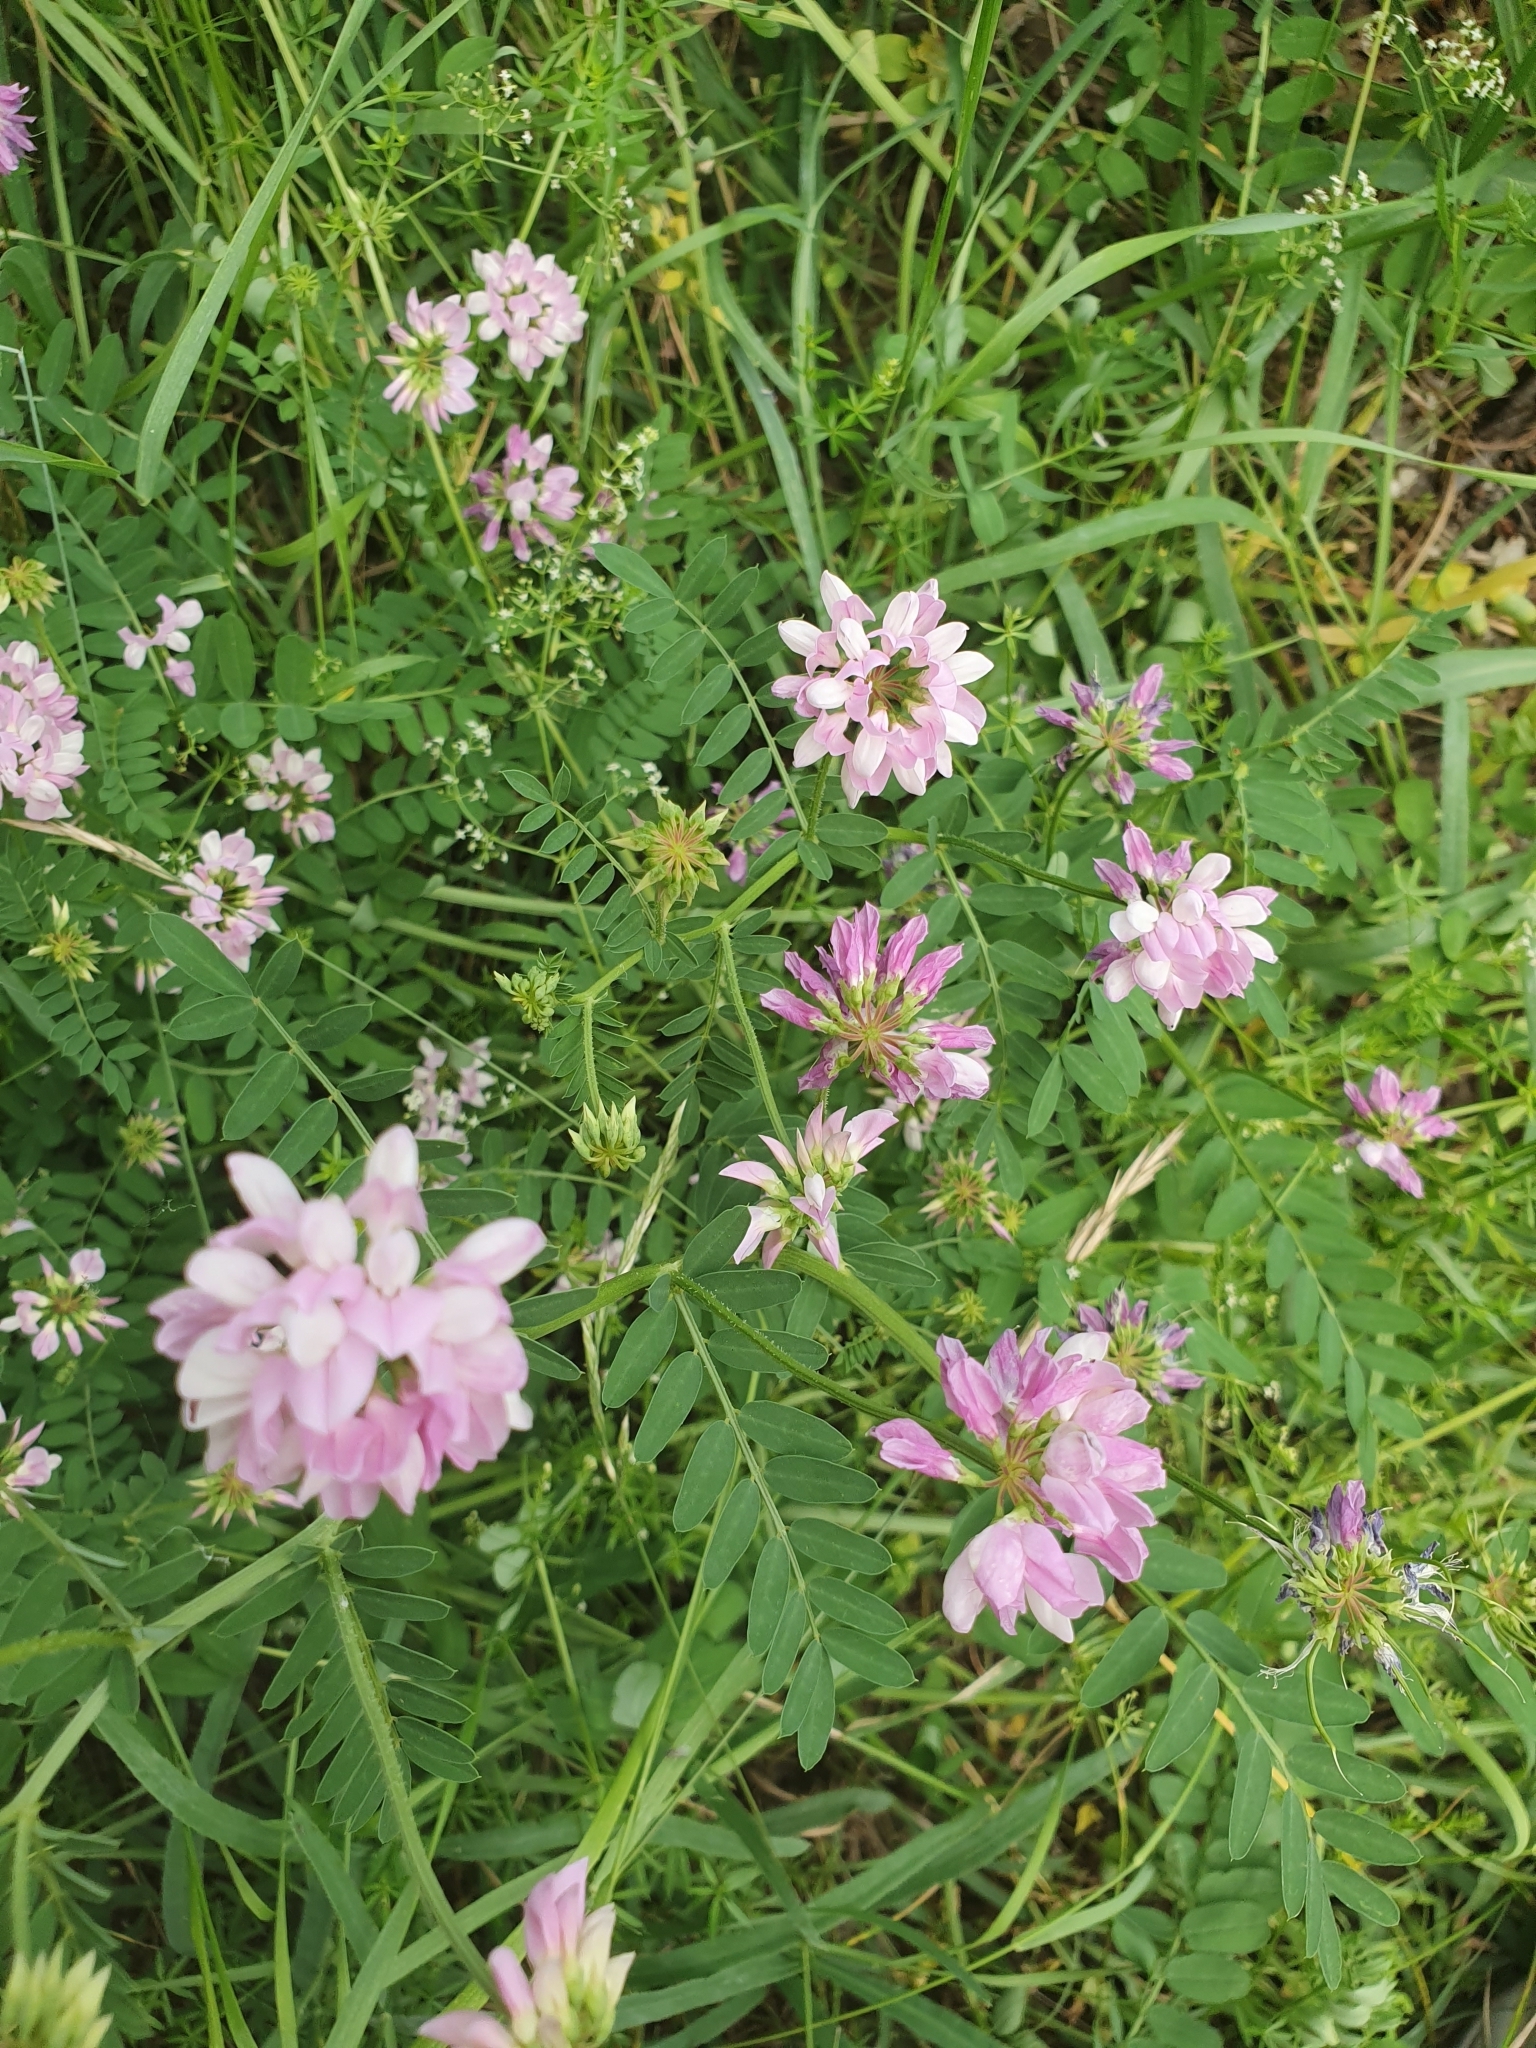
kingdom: Plantae
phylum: Tracheophyta
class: Magnoliopsida
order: Fabales
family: Fabaceae
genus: Coronilla
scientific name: Coronilla varia
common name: Crownvetch
